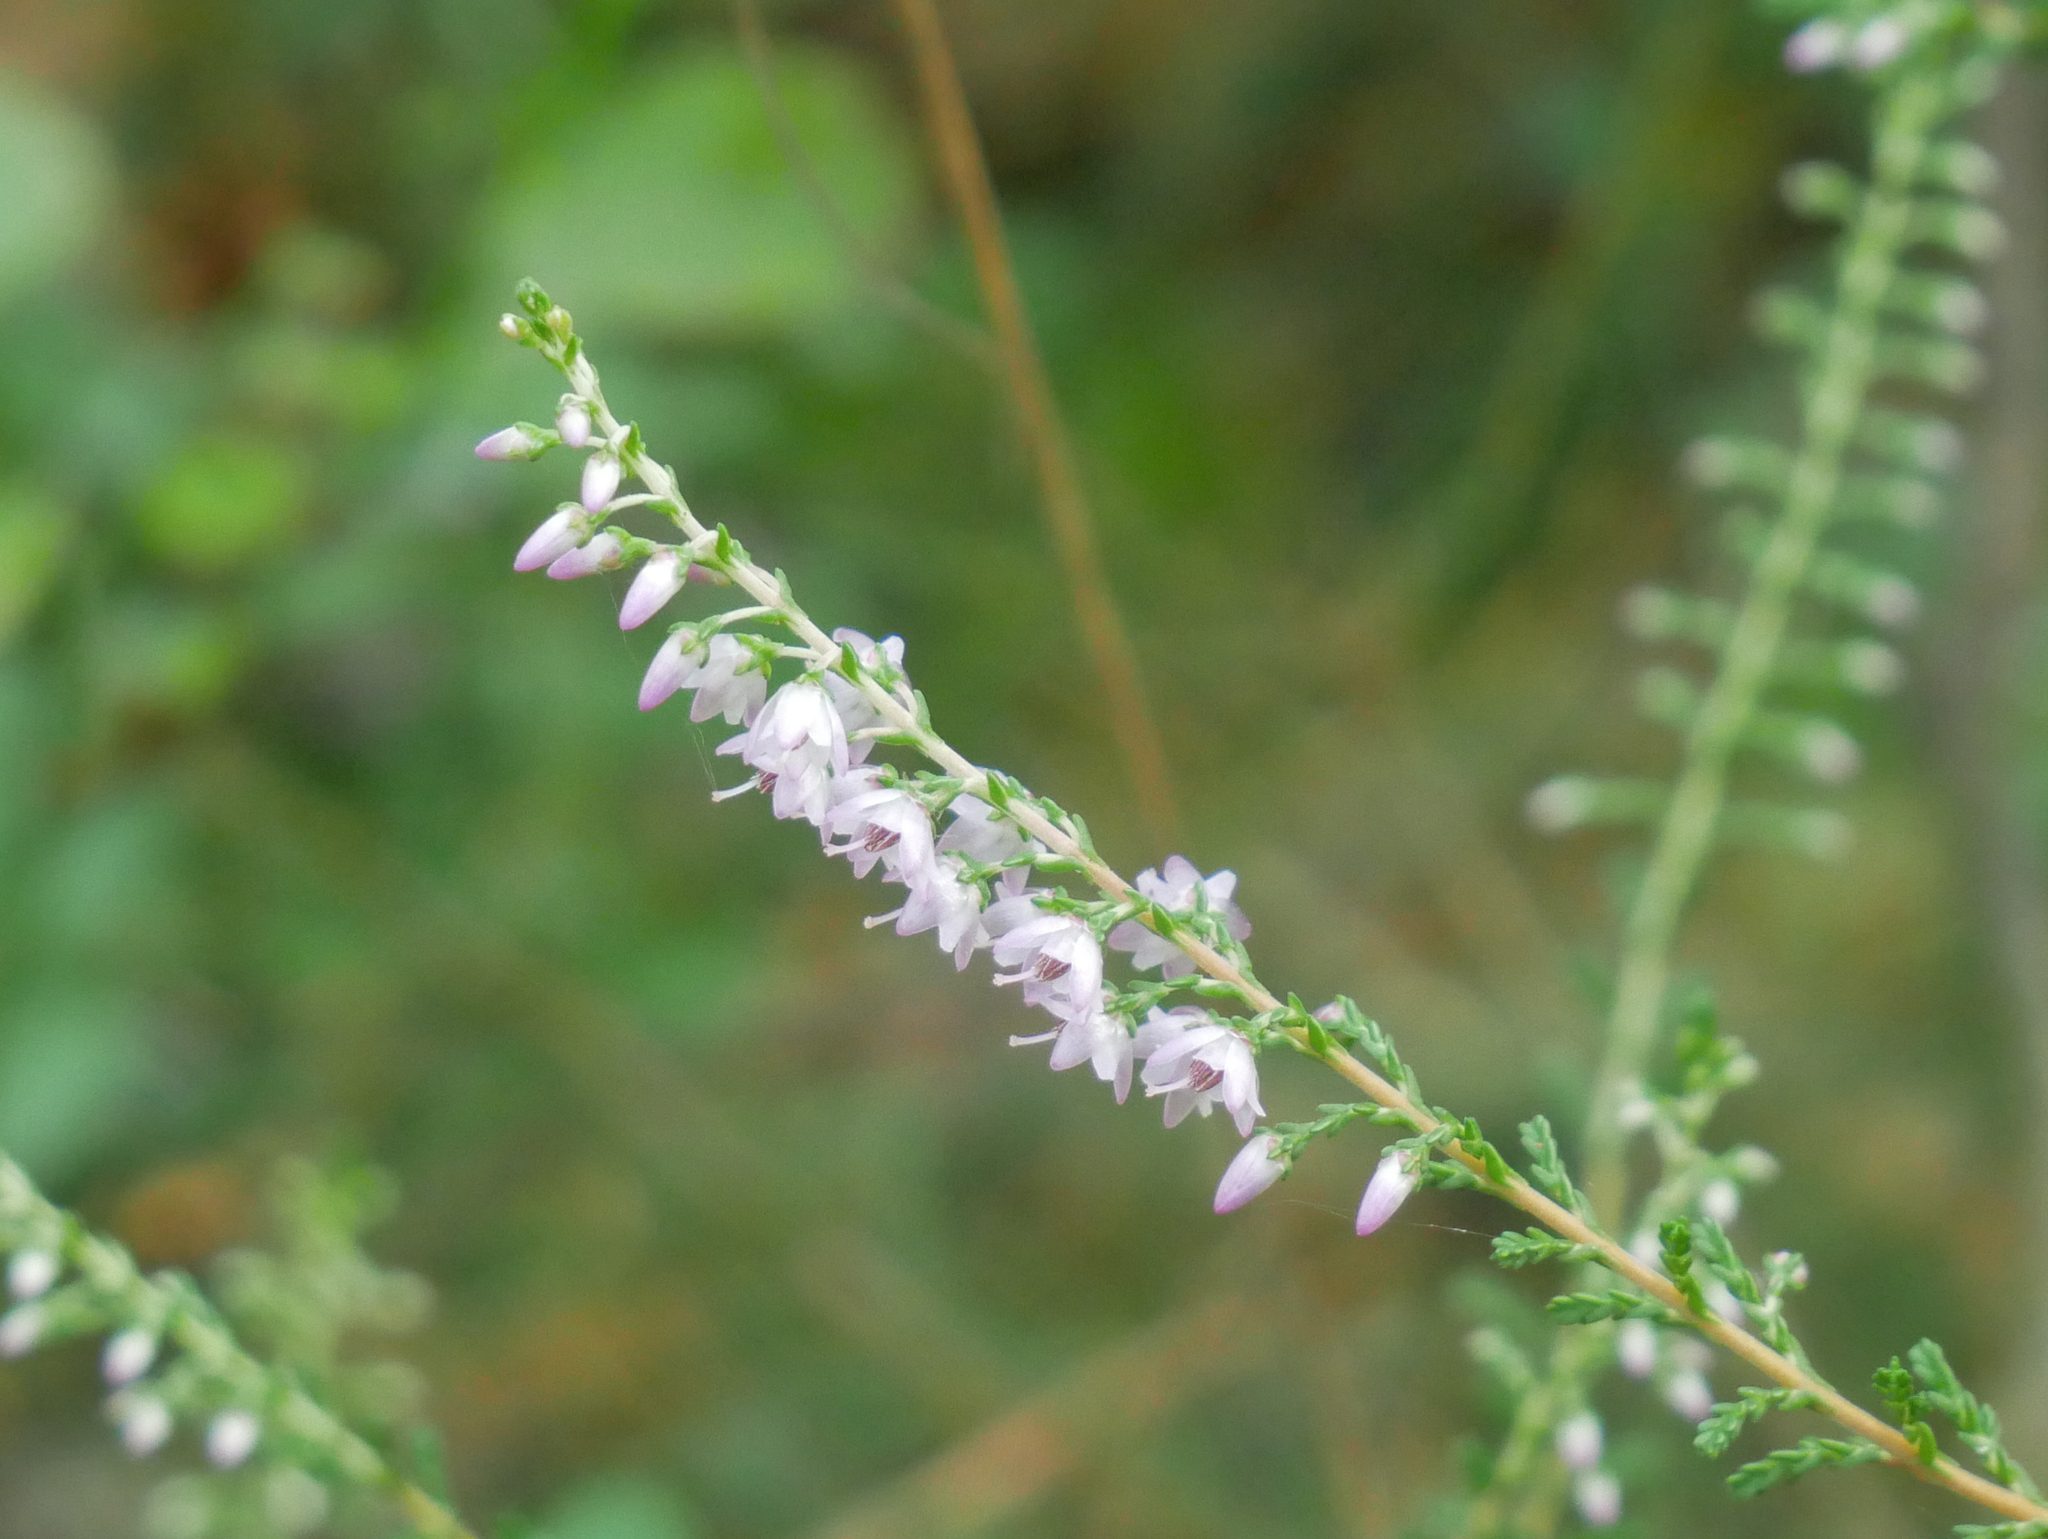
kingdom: Plantae
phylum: Tracheophyta
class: Magnoliopsida
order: Ericales
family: Ericaceae
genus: Calluna
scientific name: Calluna vulgaris
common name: Heather
